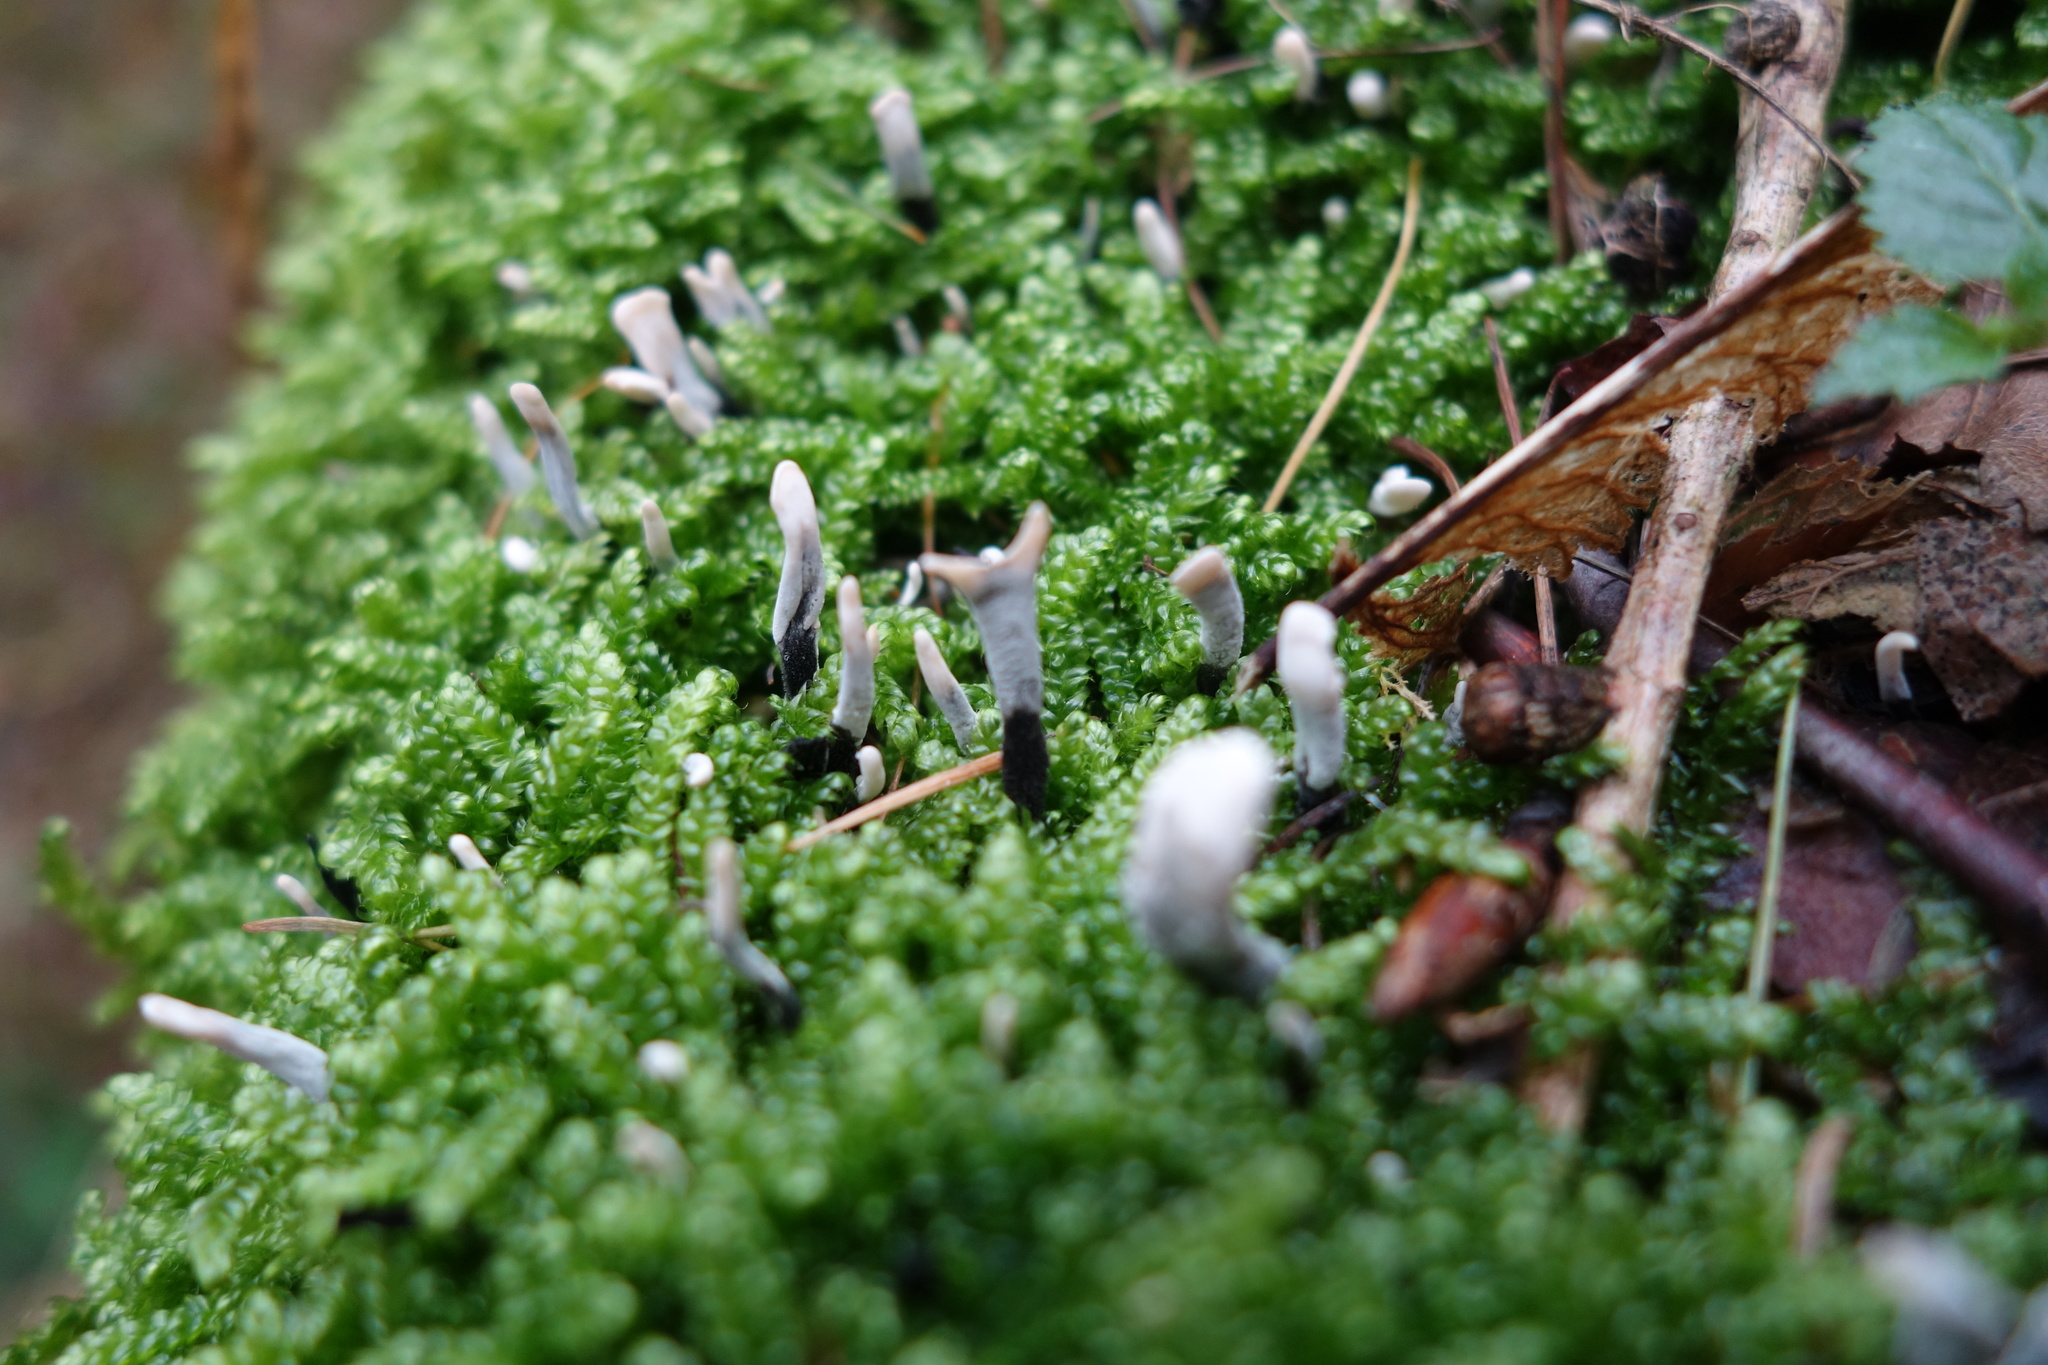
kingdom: Fungi
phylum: Ascomycota
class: Sordariomycetes
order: Xylariales
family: Xylariaceae
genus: Xylaria
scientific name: Xylaria hypoxylon
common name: Candle-snuff fungus
